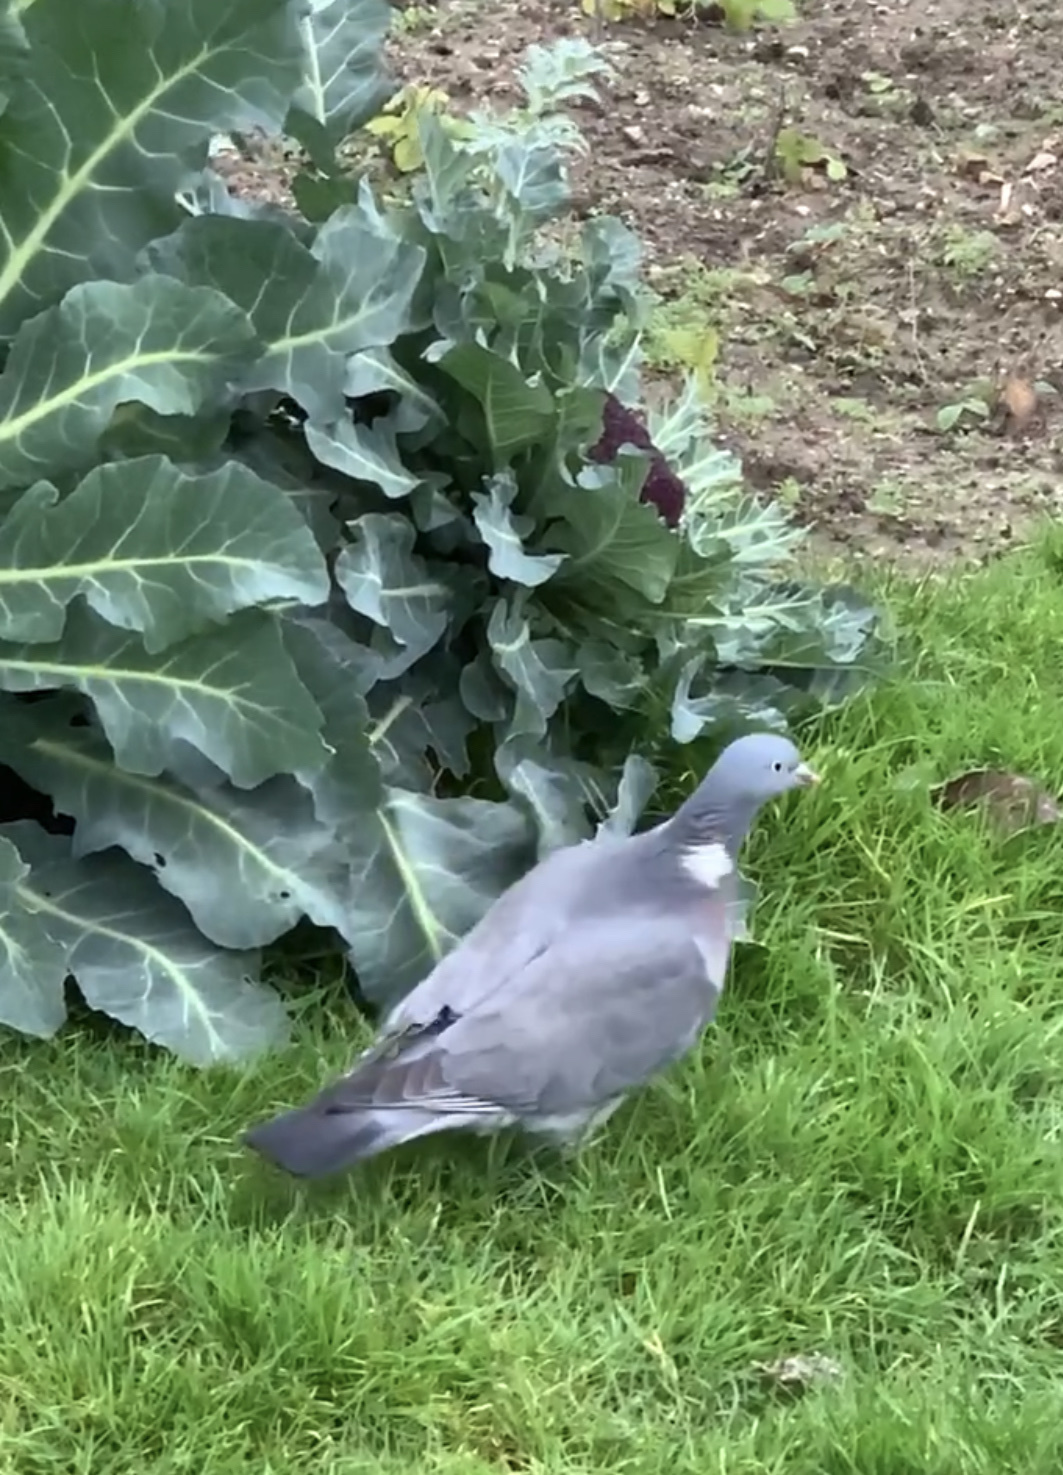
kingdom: Animalia
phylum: Chordata
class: Aves
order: Columbiformes
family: Columbidae
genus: Columba
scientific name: Columba palumbus
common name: Common wood pigeon
